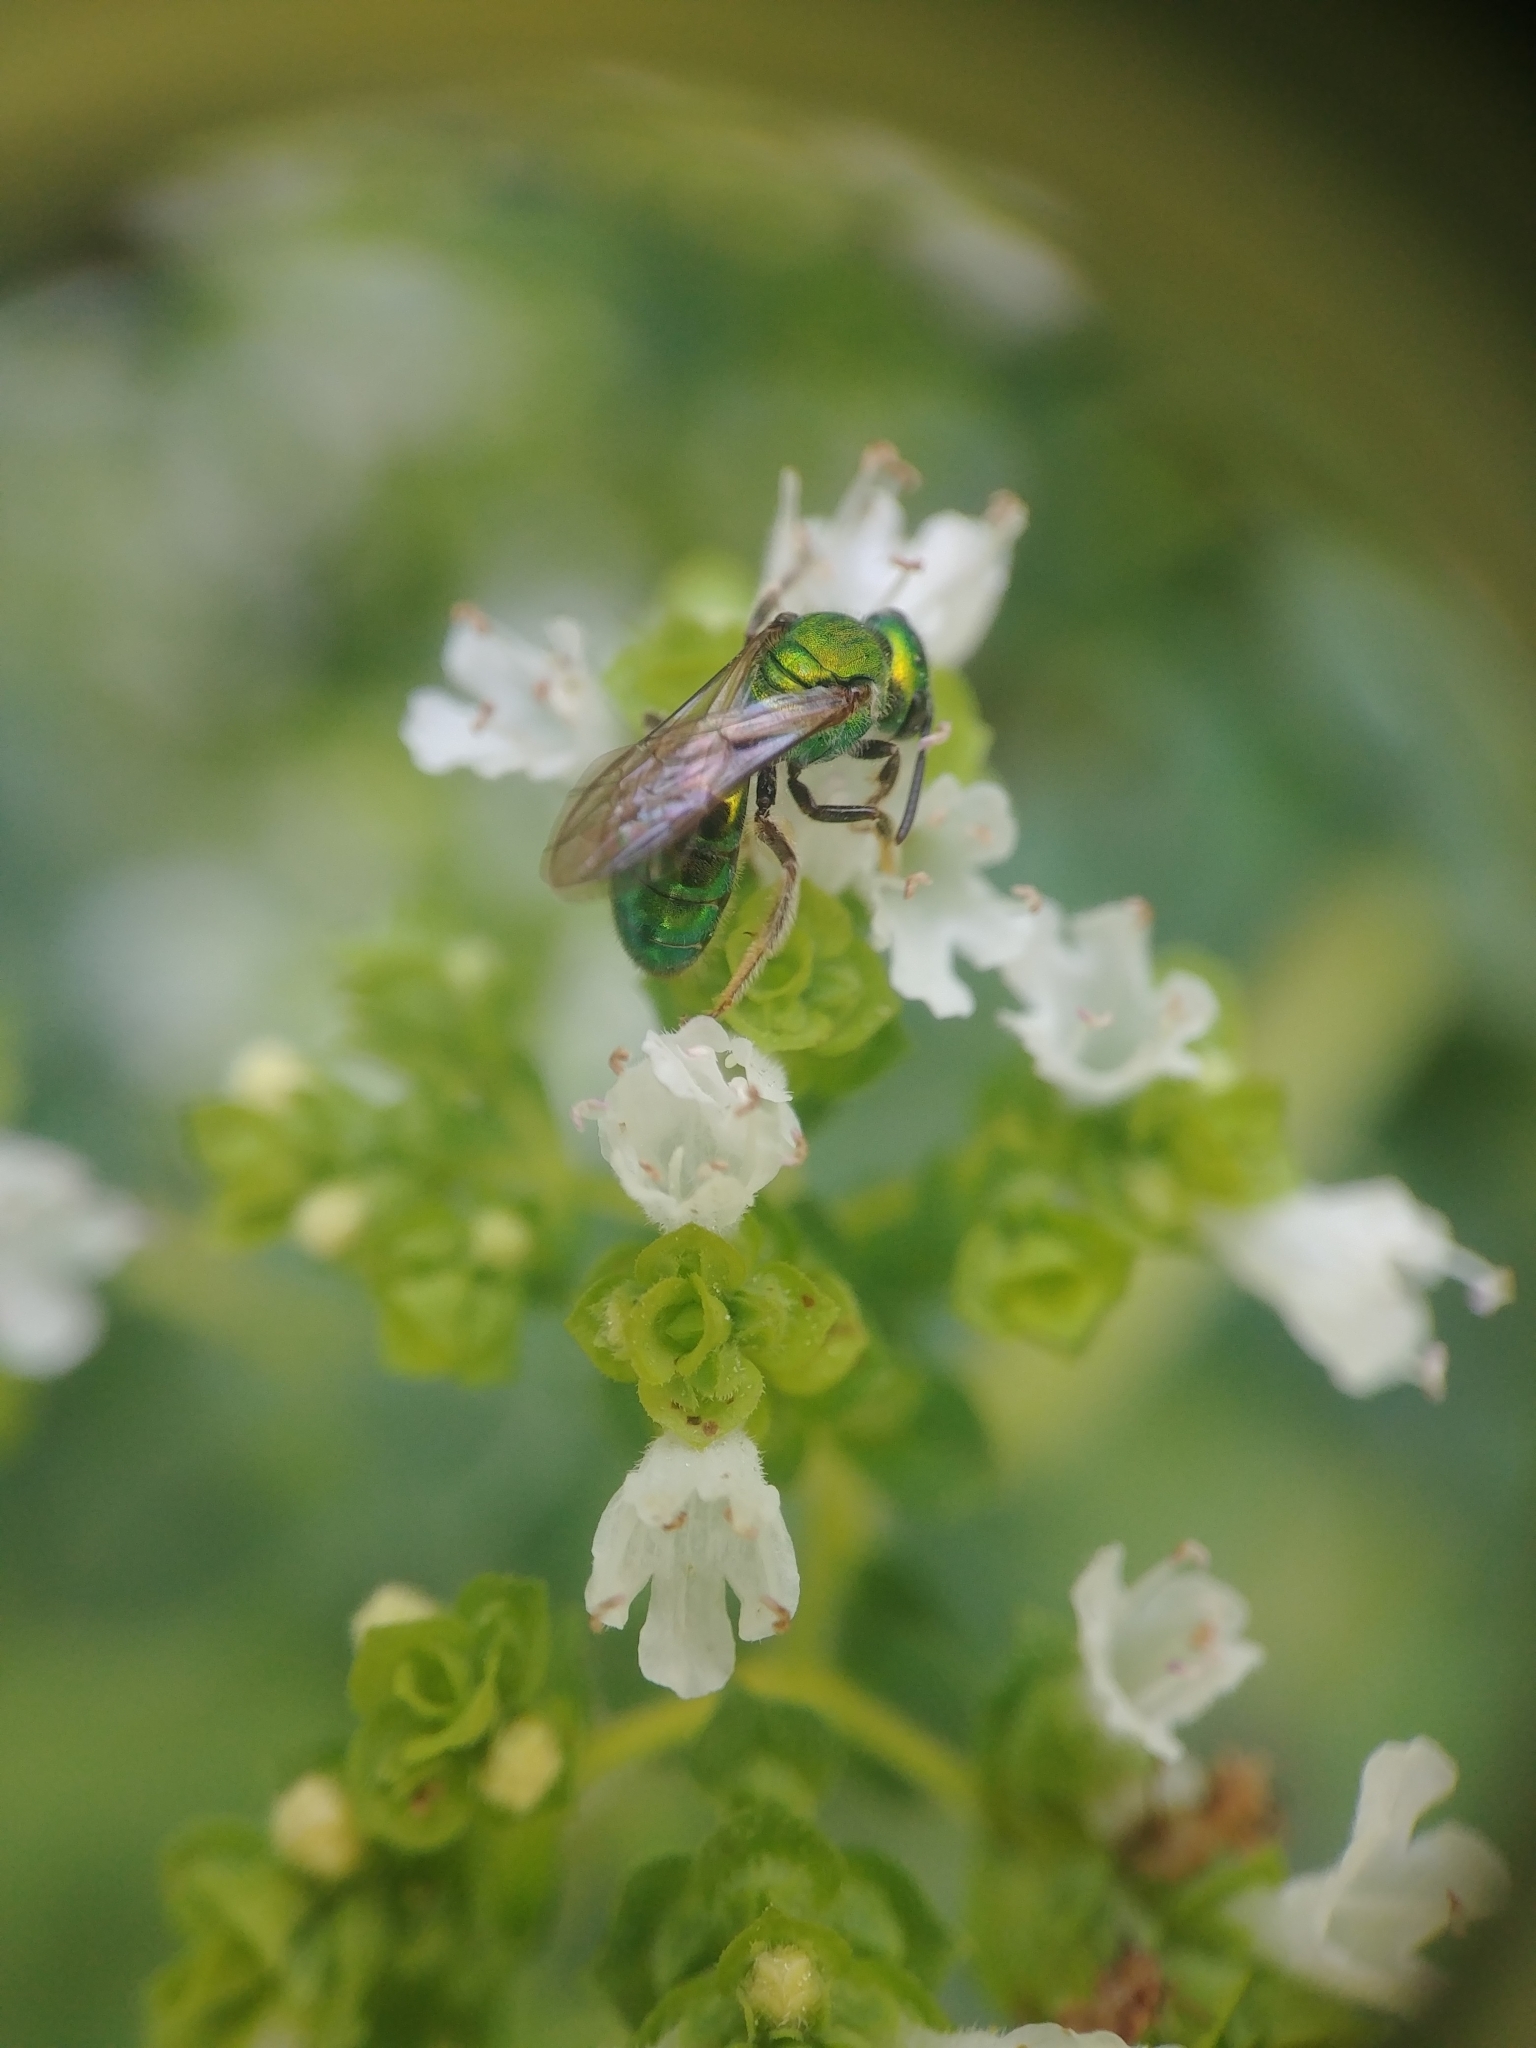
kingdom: Animalia
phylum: Arthropoda
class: Insecta
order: Hymenoptera
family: Halictidae
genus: Augochlora
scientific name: Augochlora pura
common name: Pure green sweat bee
